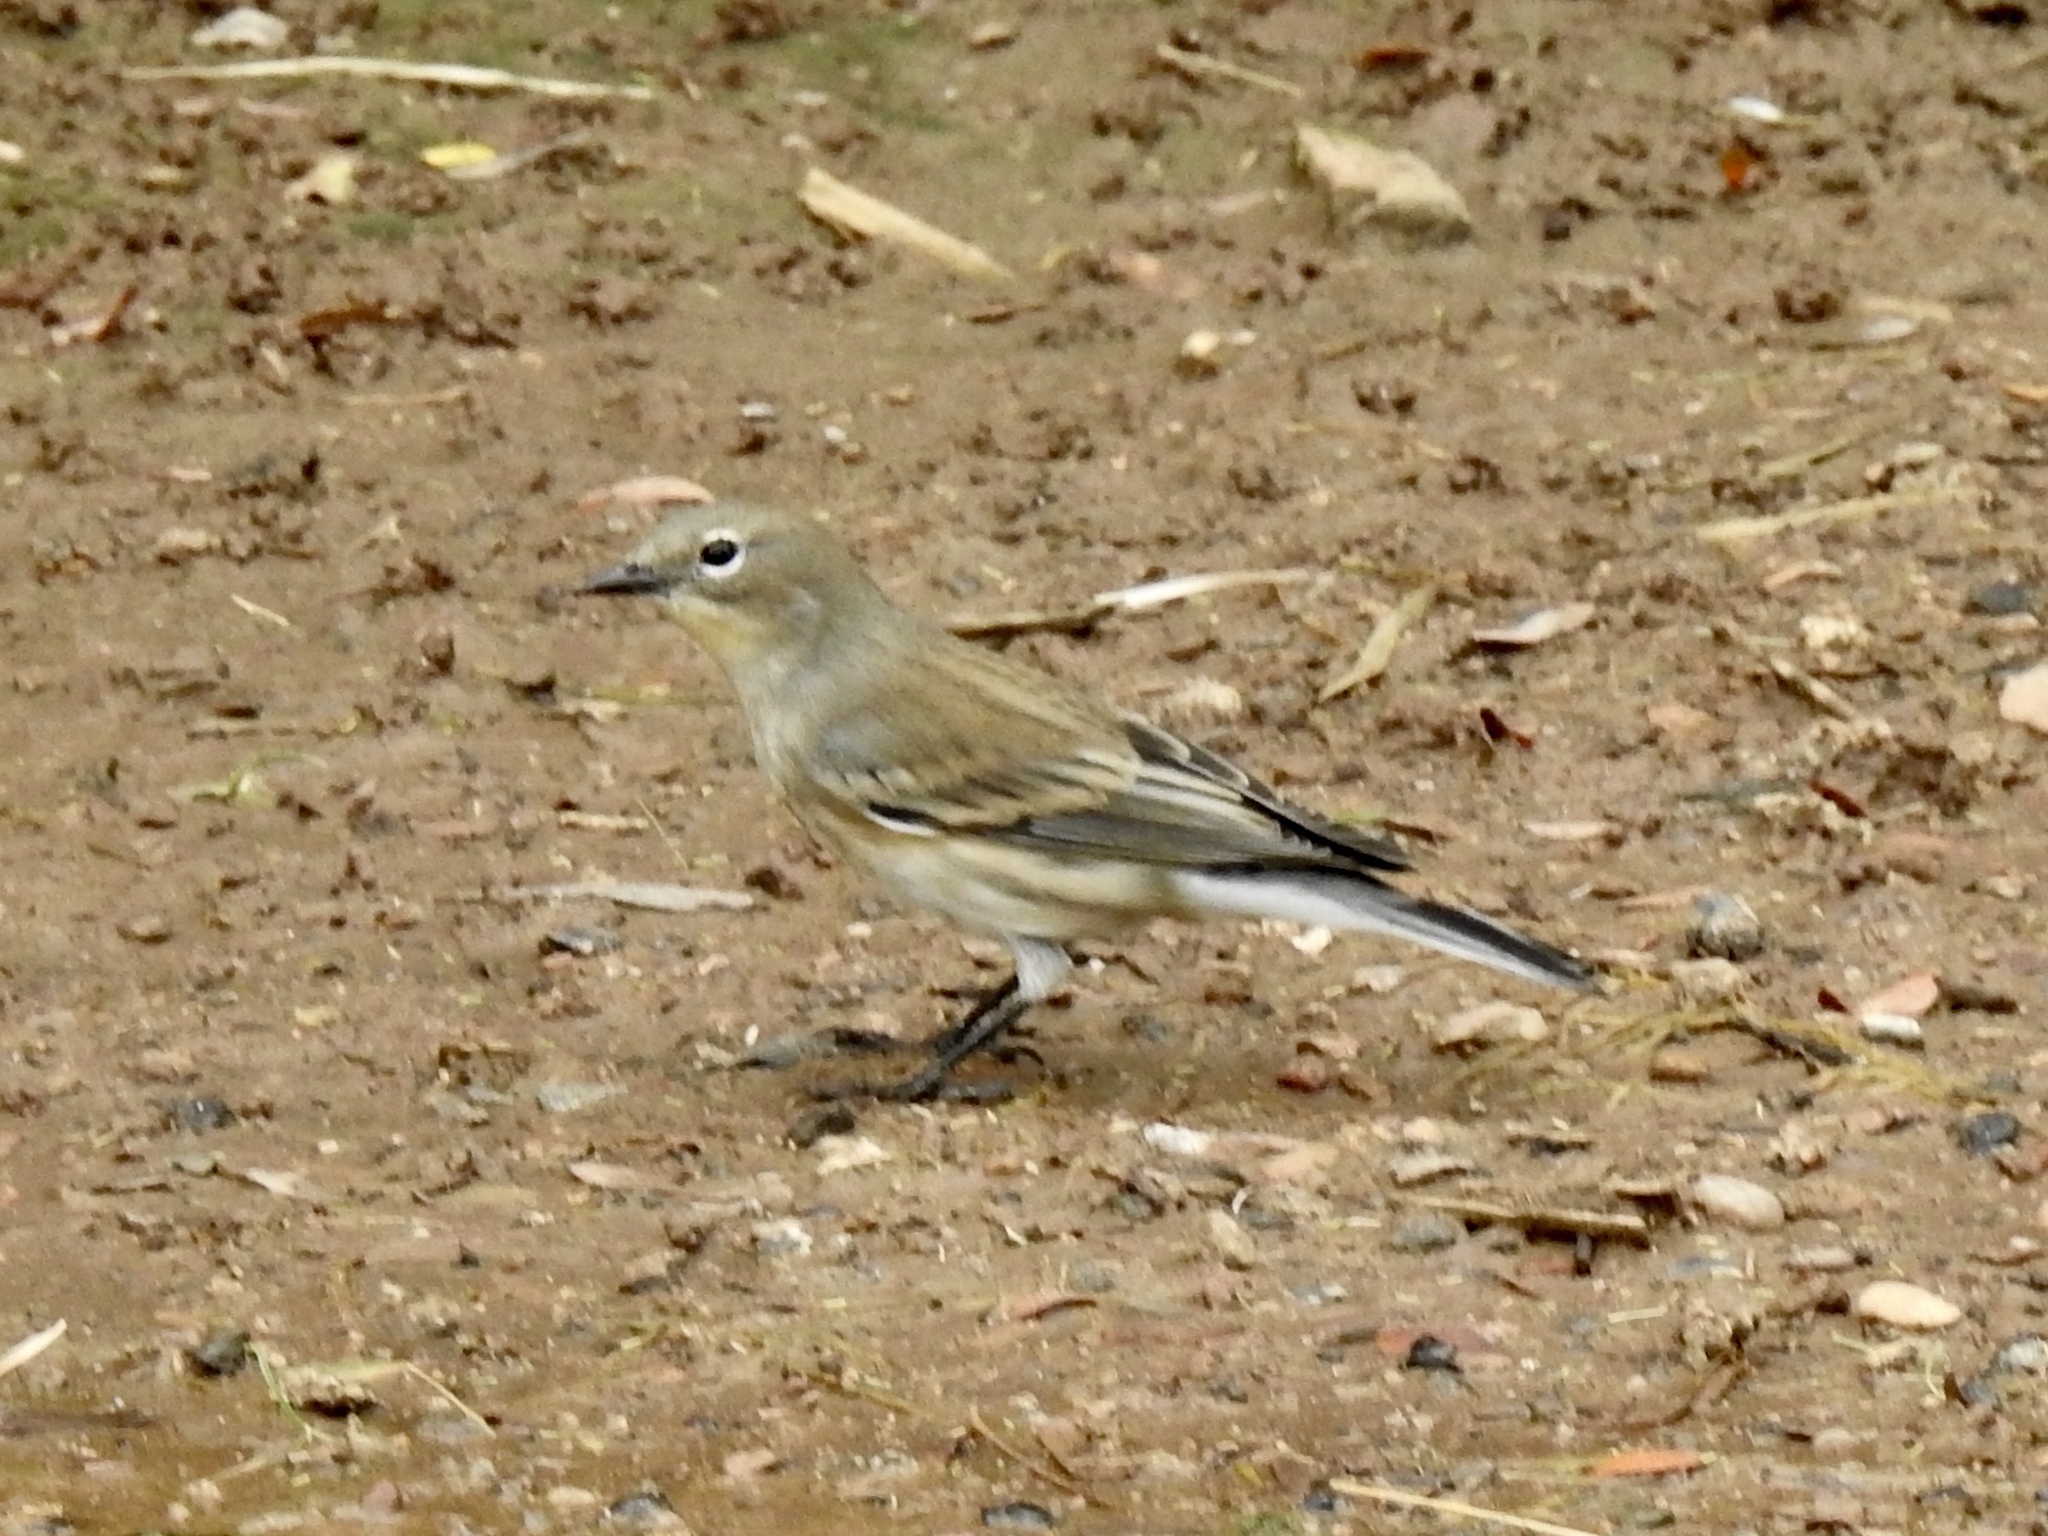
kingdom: Animalia
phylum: Chordata
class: Aves
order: Passeriformes
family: Parulidae
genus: Setophaga
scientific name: Setophaga coronata
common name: Myrtle warbler
